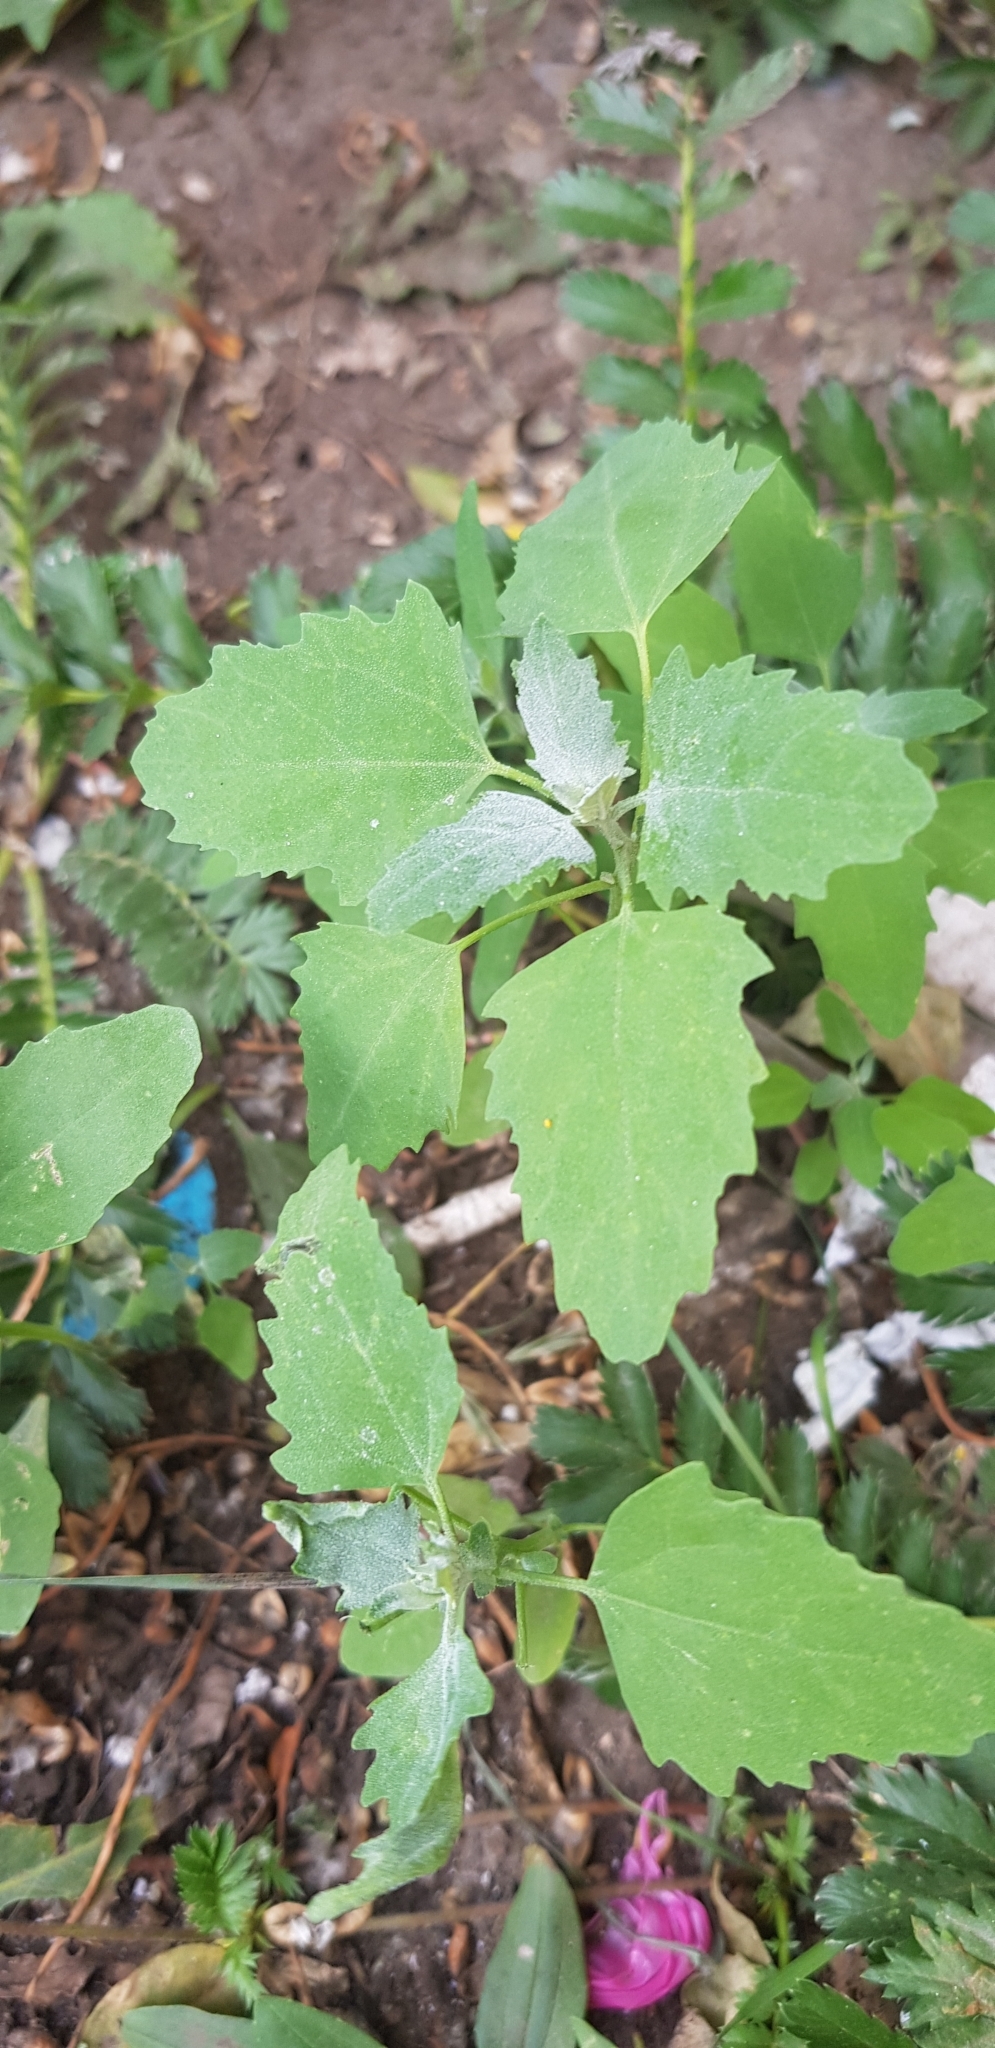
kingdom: Plantae
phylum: Tracheophyta
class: Magnoliopsida
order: Caryophyllales
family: Amaranthaceae
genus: Chenopodium
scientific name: Chenopodium album
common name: Fat-hen
